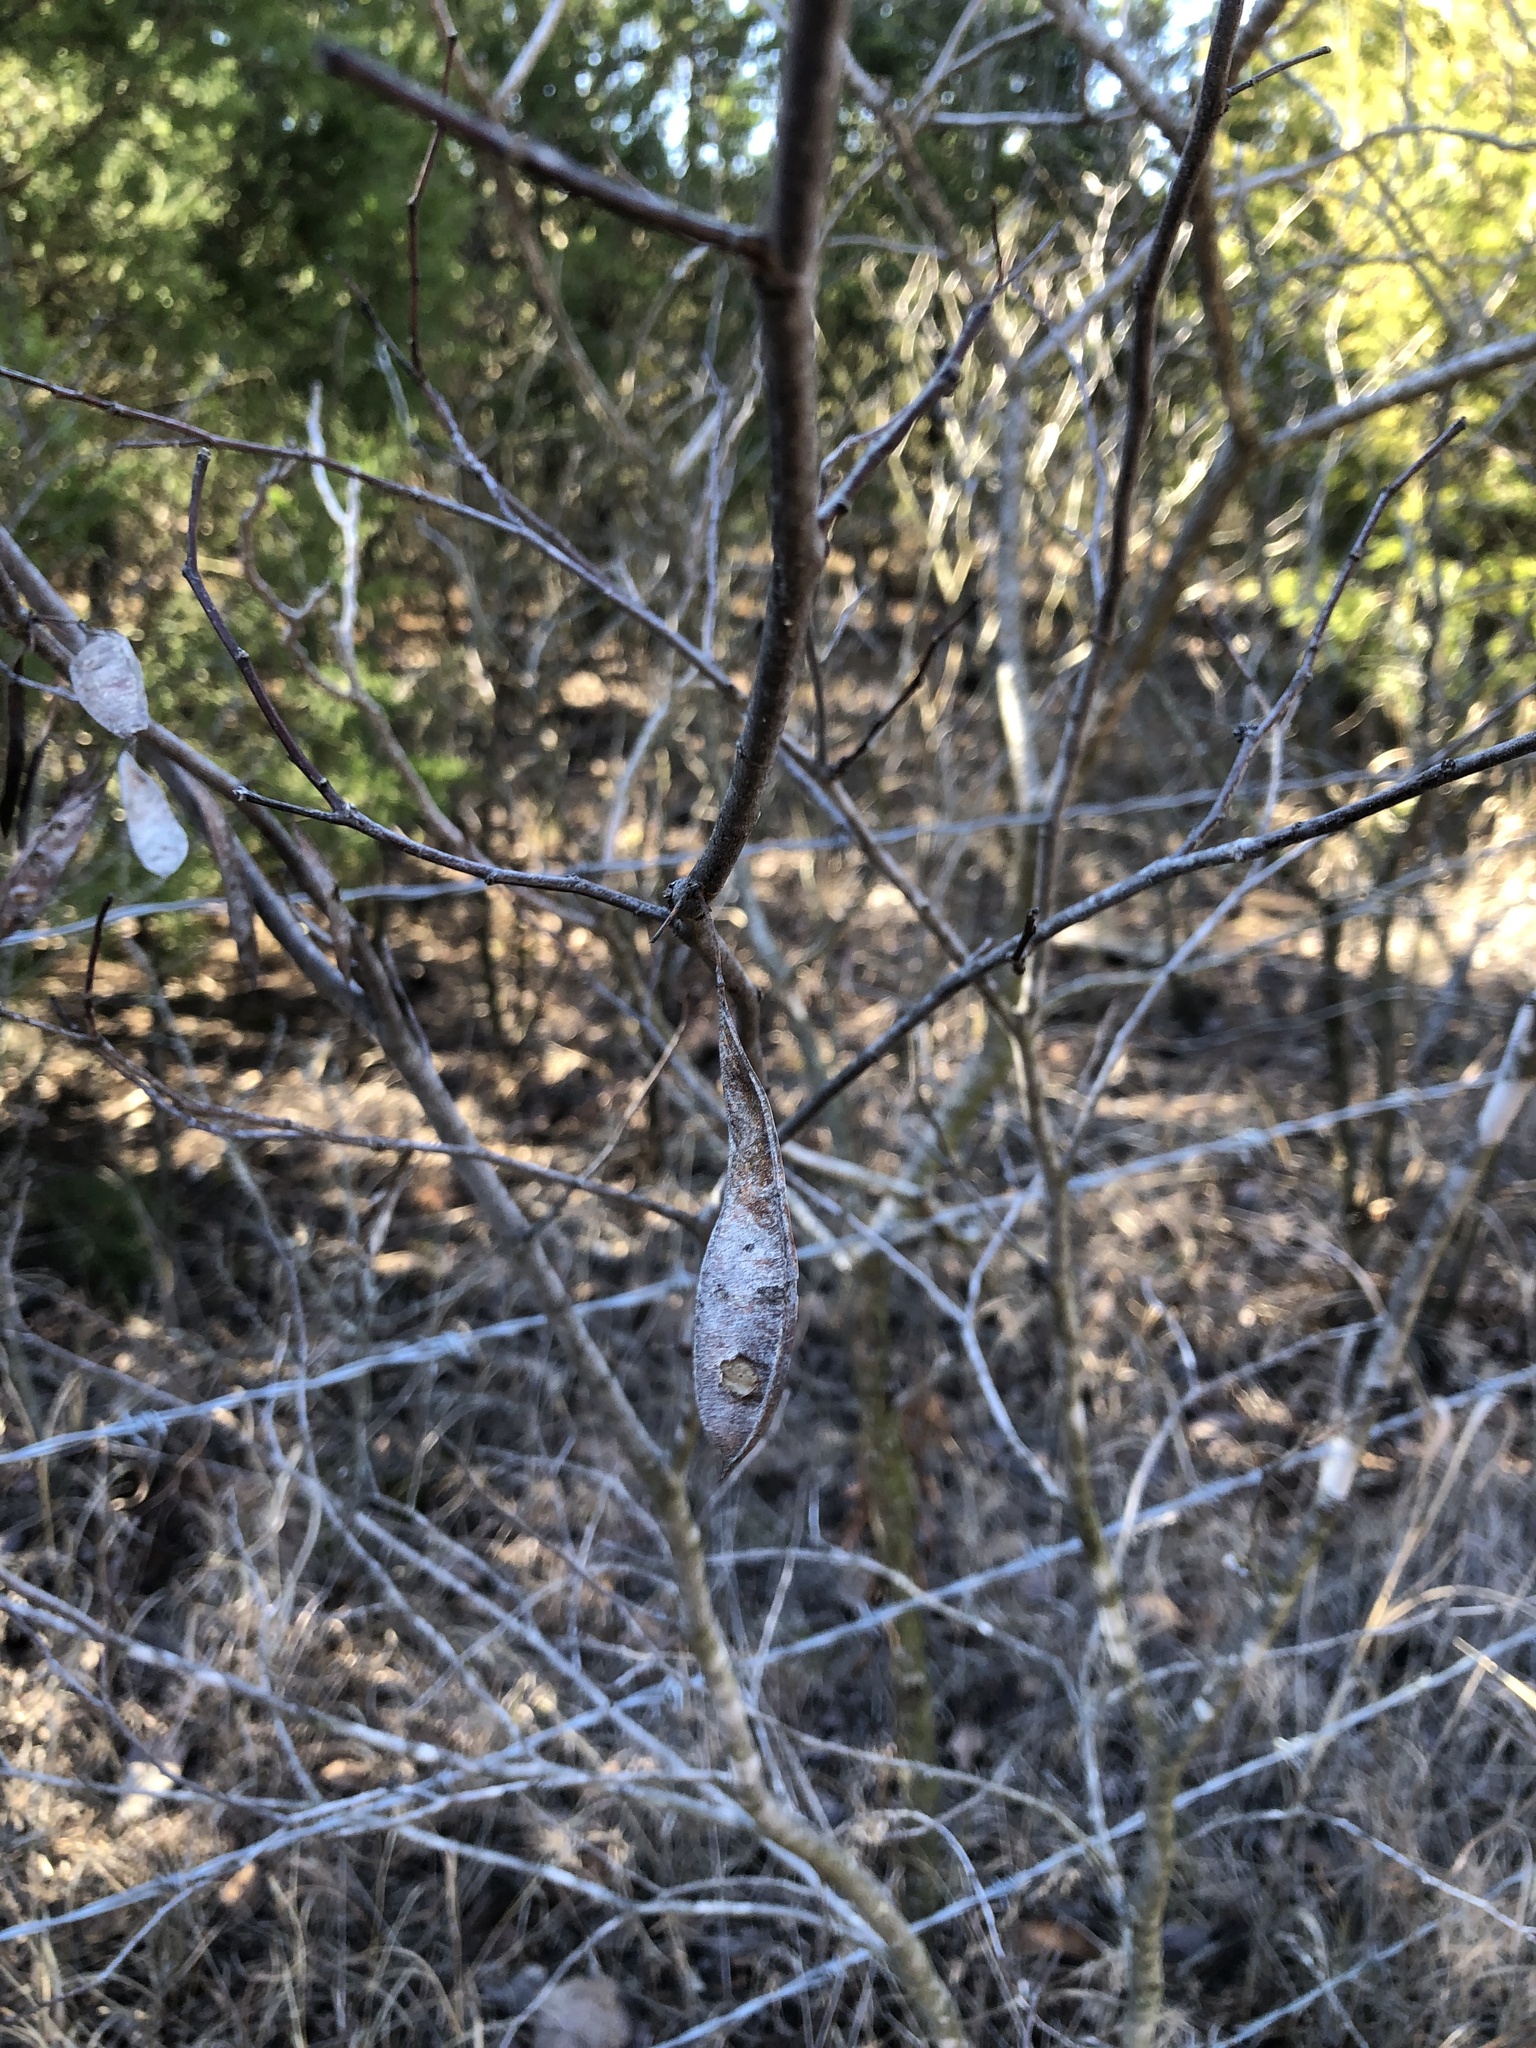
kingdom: Plantae
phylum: Tracheophyta
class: Magnoliopsida
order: Fabales
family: Fabaceae
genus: Cercis
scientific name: Cercis canadensis
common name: Eastern redbud
